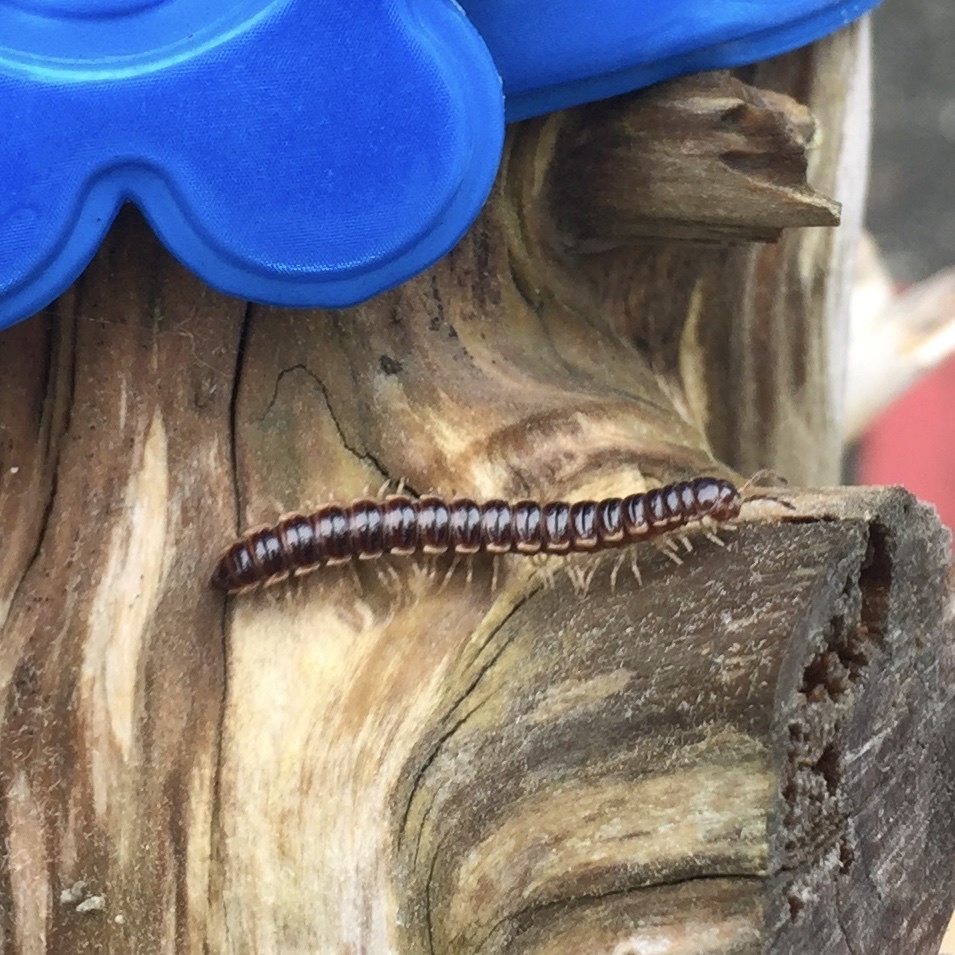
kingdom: Animalia
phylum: Arthropoda
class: Diplopoda
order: Polydesmida
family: Paradoxosomatidae
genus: Oxidus
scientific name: Oxidus gracilis
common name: Greenhouse millipede
